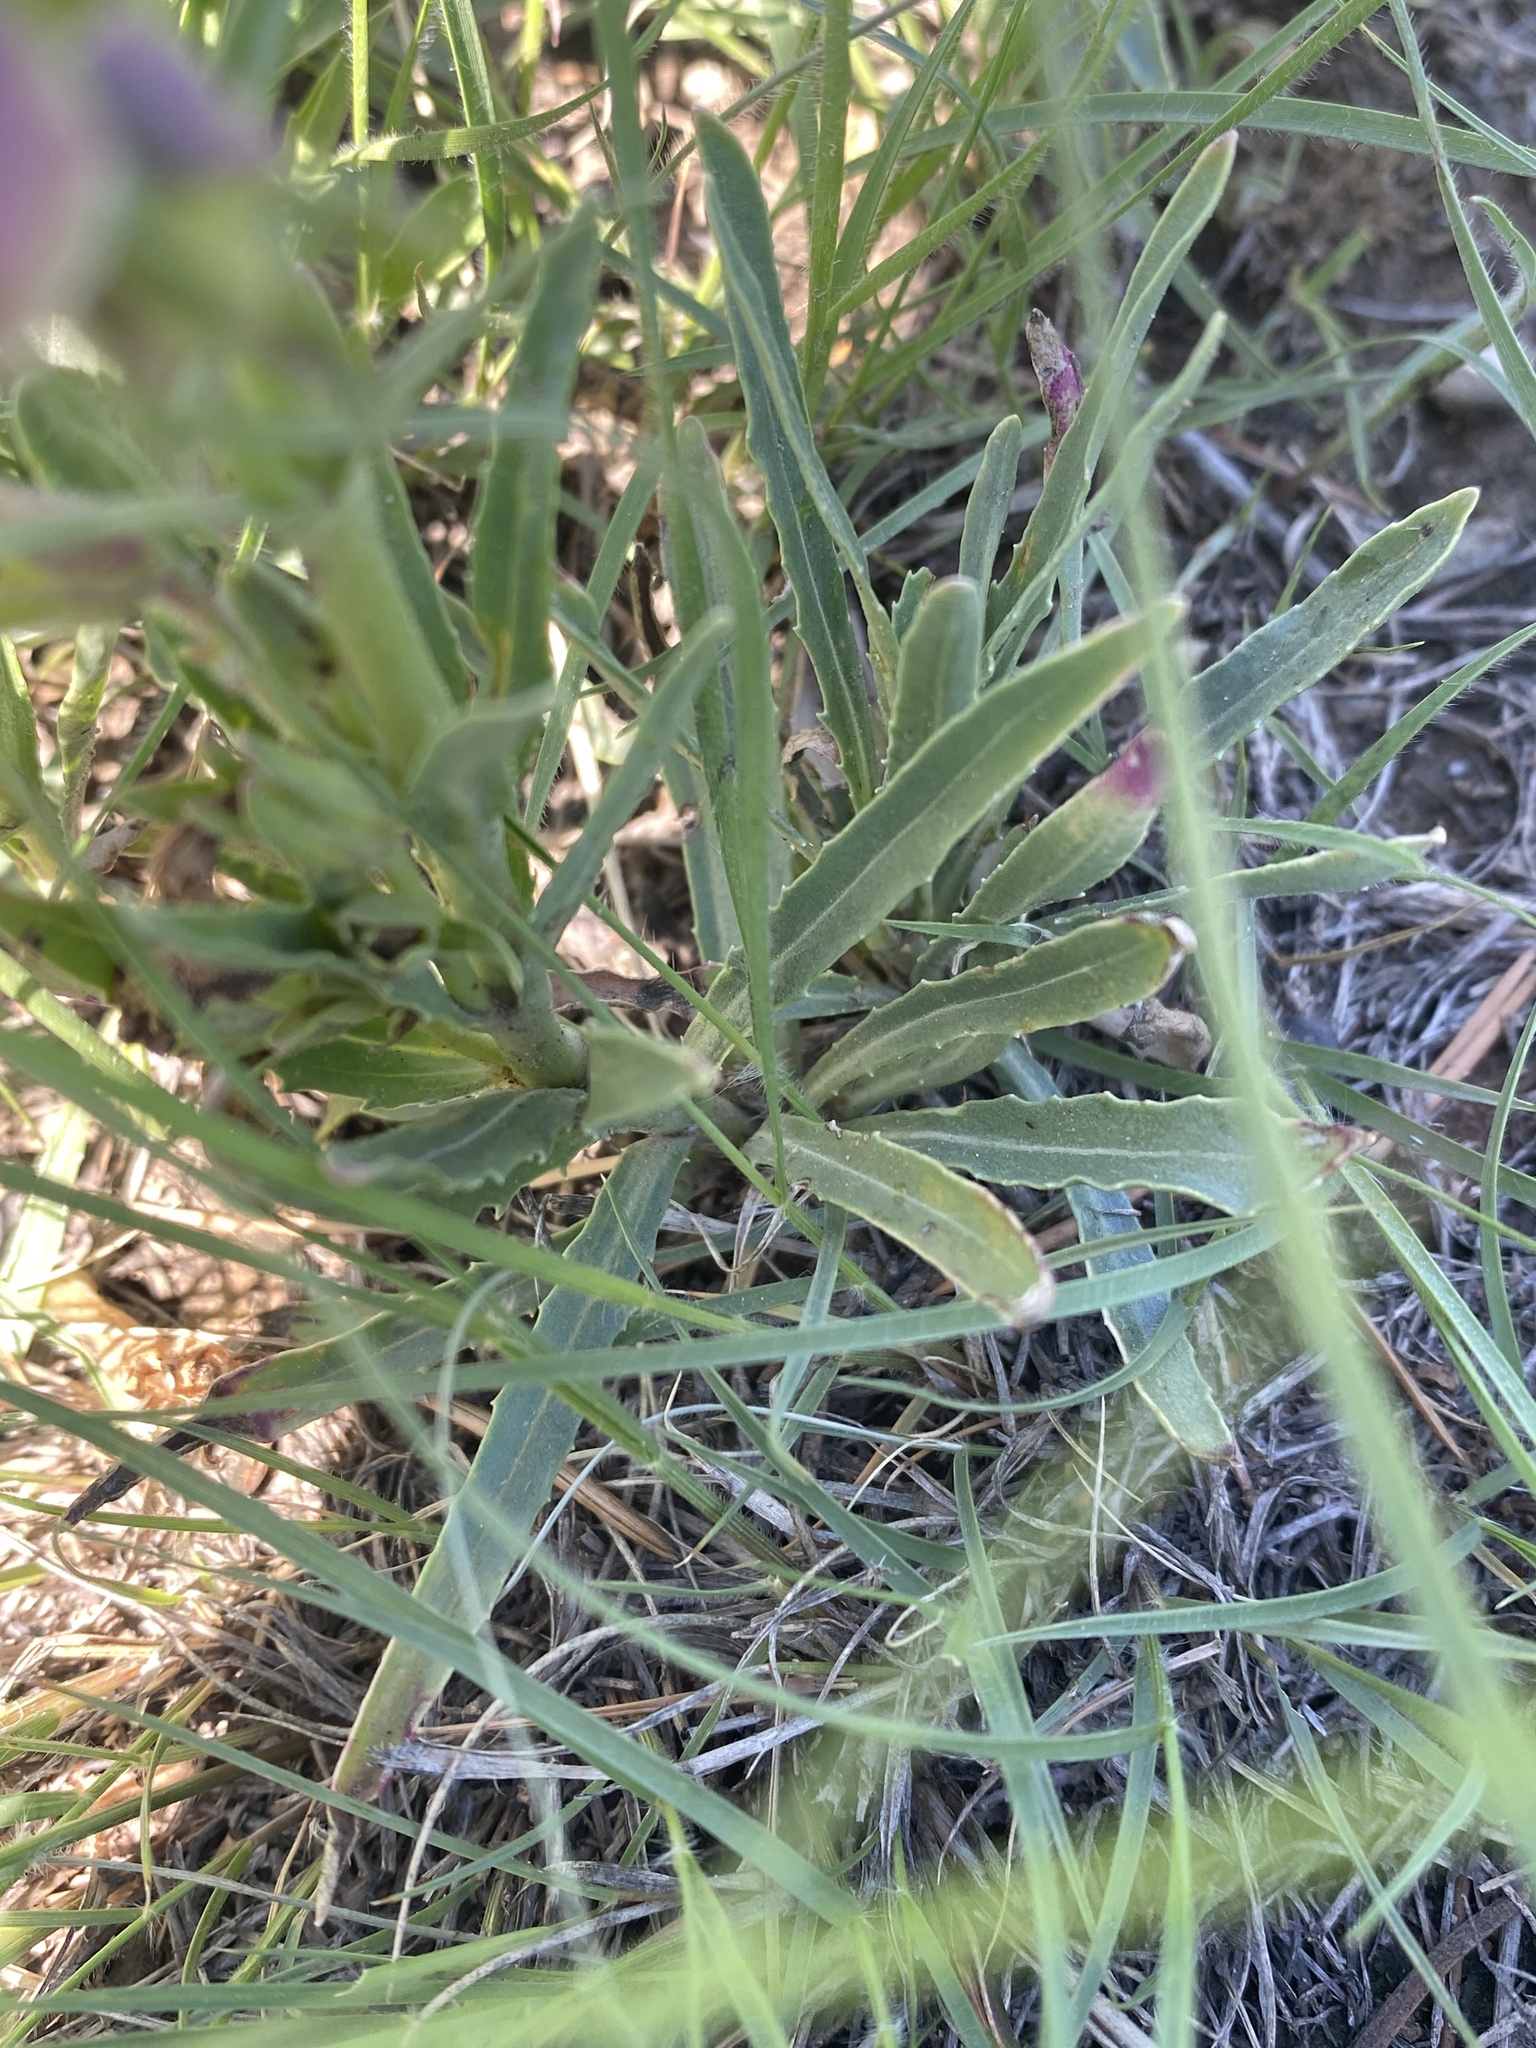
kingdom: Plantae
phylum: Tracheophyta
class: Magnoliopsida
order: Lamiales
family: Plantaginaceae
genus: Penstemon
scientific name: Penstemon jamesii
